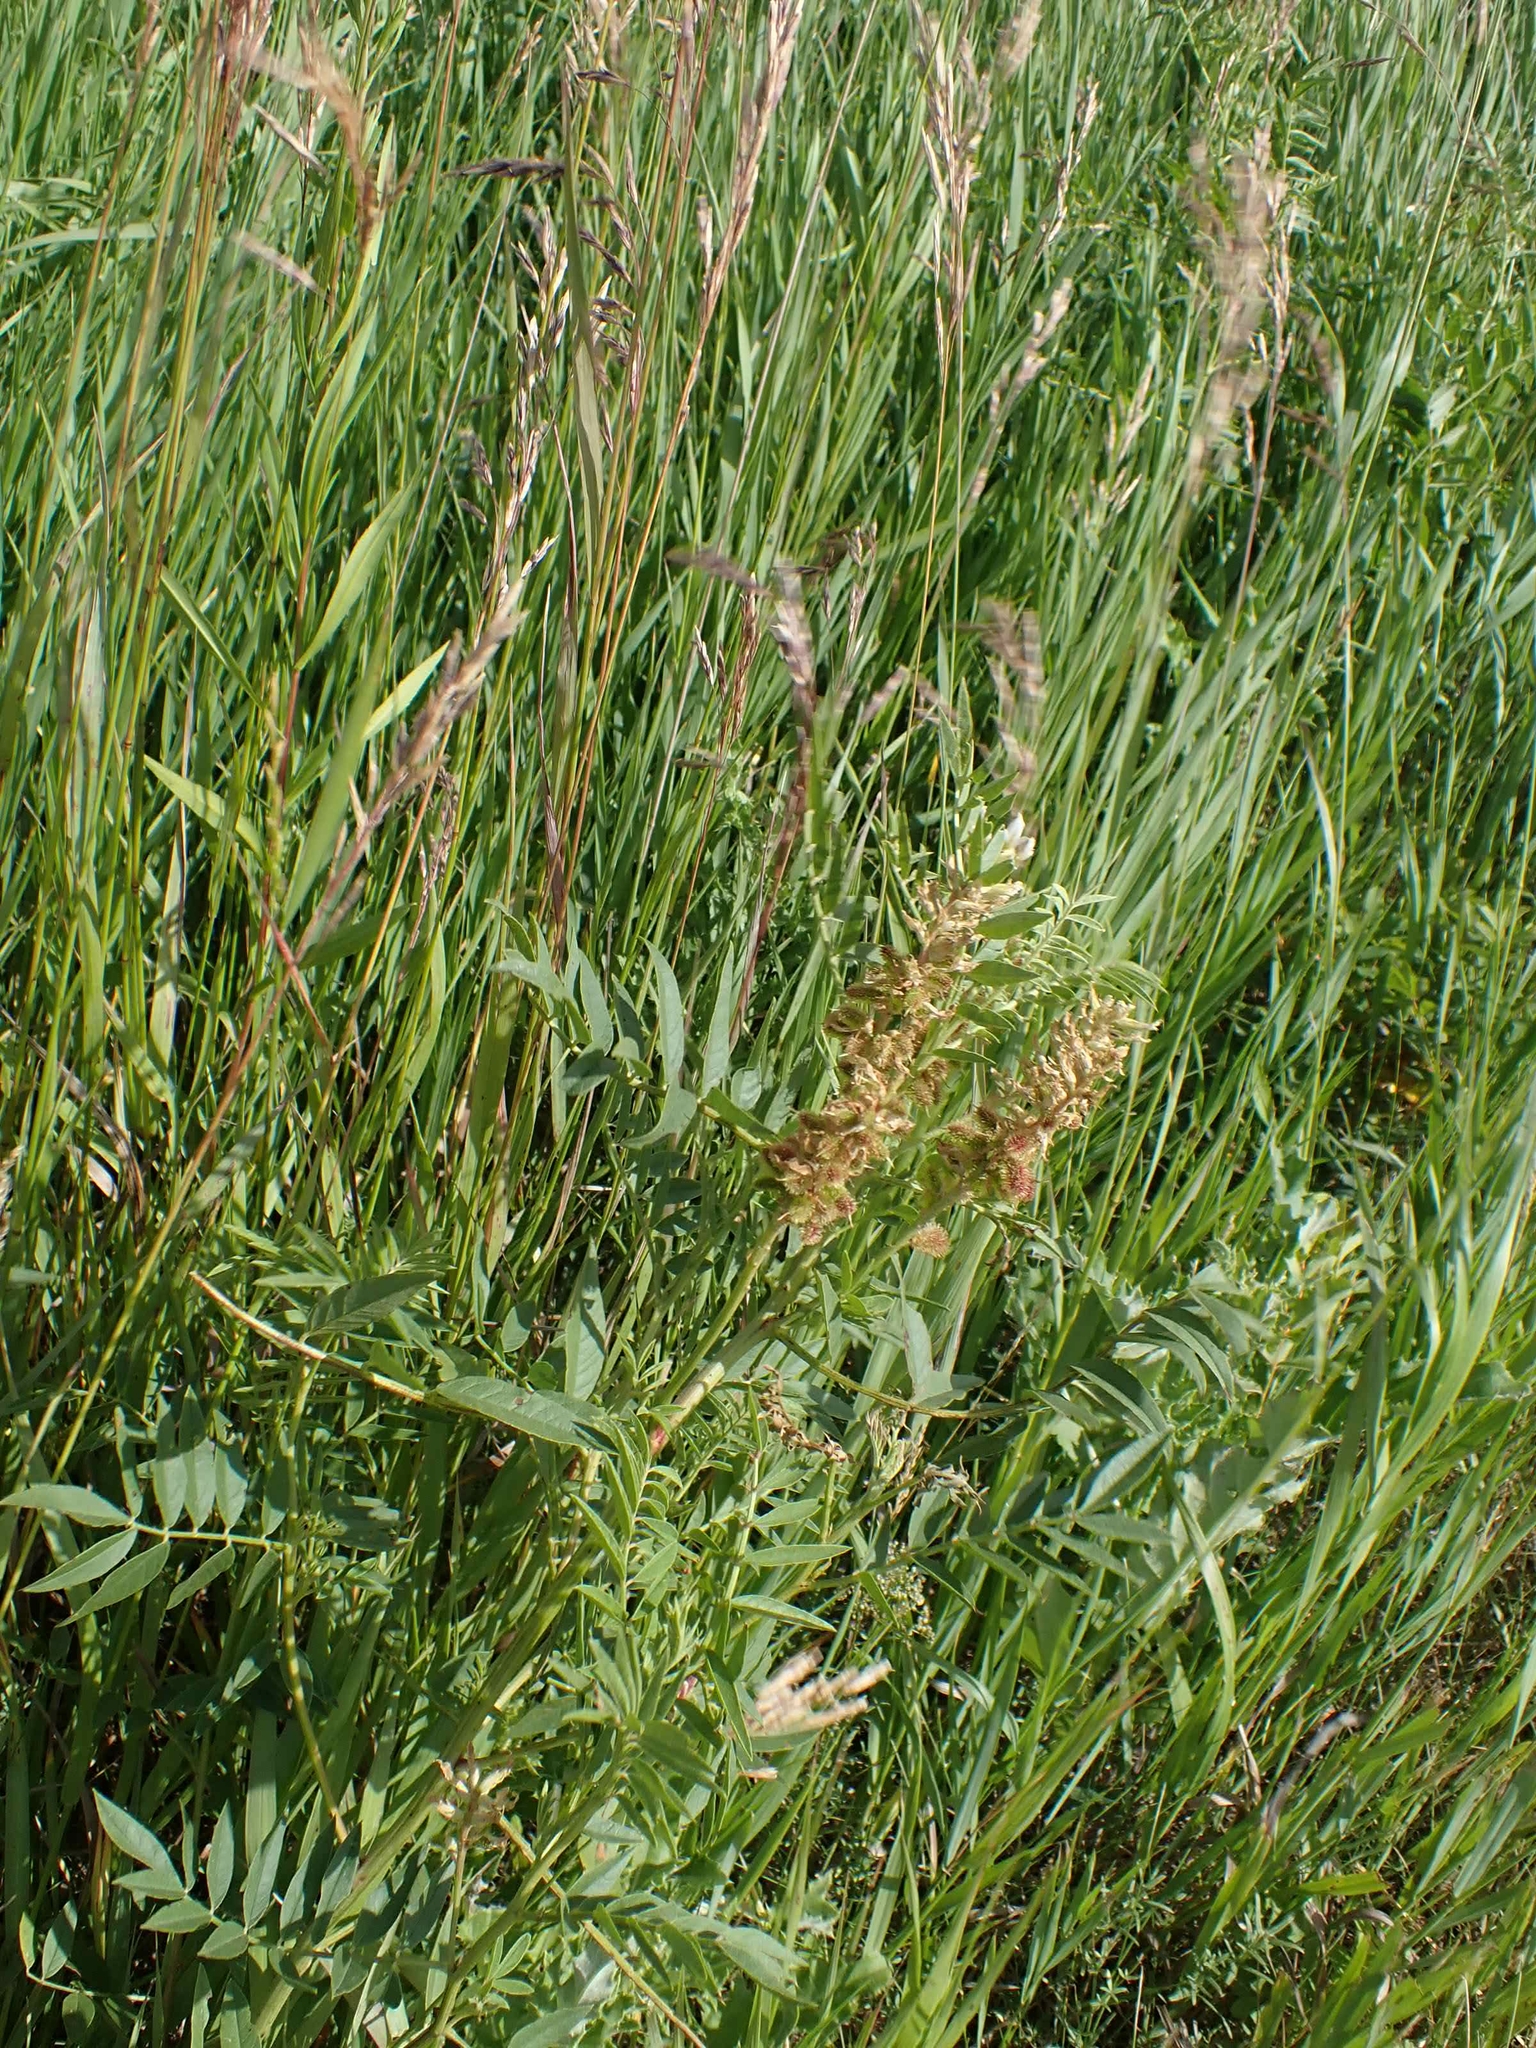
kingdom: Plantae
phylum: Tracheophyta
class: Magnoliopsida
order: Fabales
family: Fabaceae
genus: Glycyrrhiza
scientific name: Glycyrrhiza lepidota
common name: American liquorice
